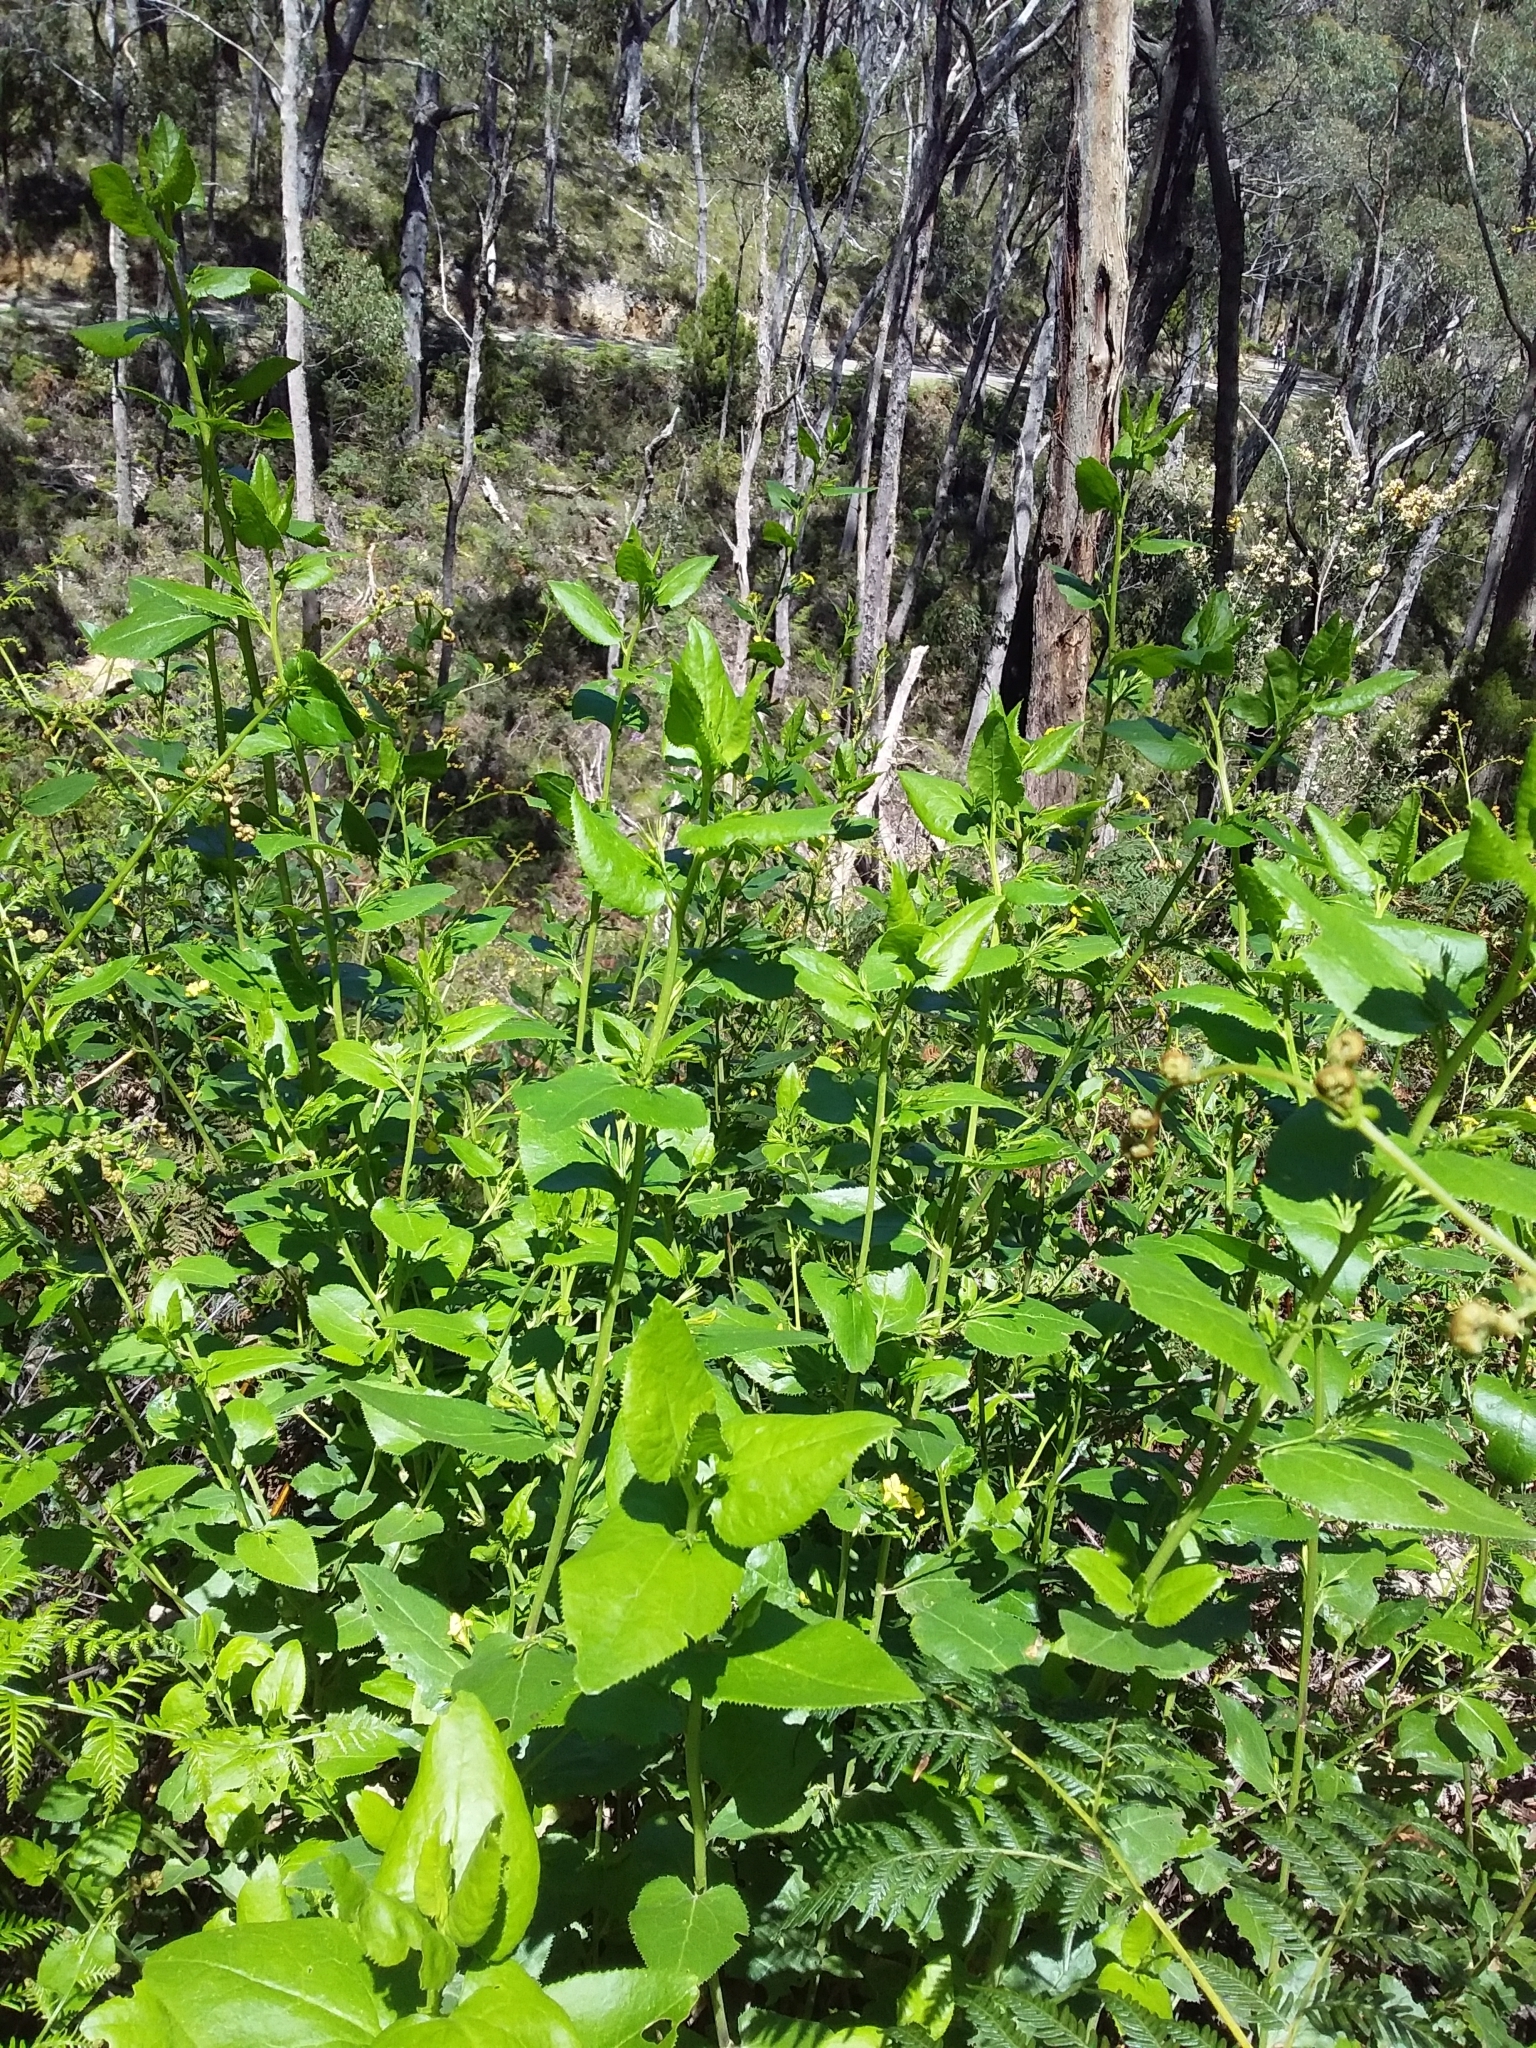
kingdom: Plantae
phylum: Tracheophyta
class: Magnoliopsida
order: Asterales
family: Goodeniaceae
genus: Goodenia
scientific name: Goodenia ovata
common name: Hop goodenia
